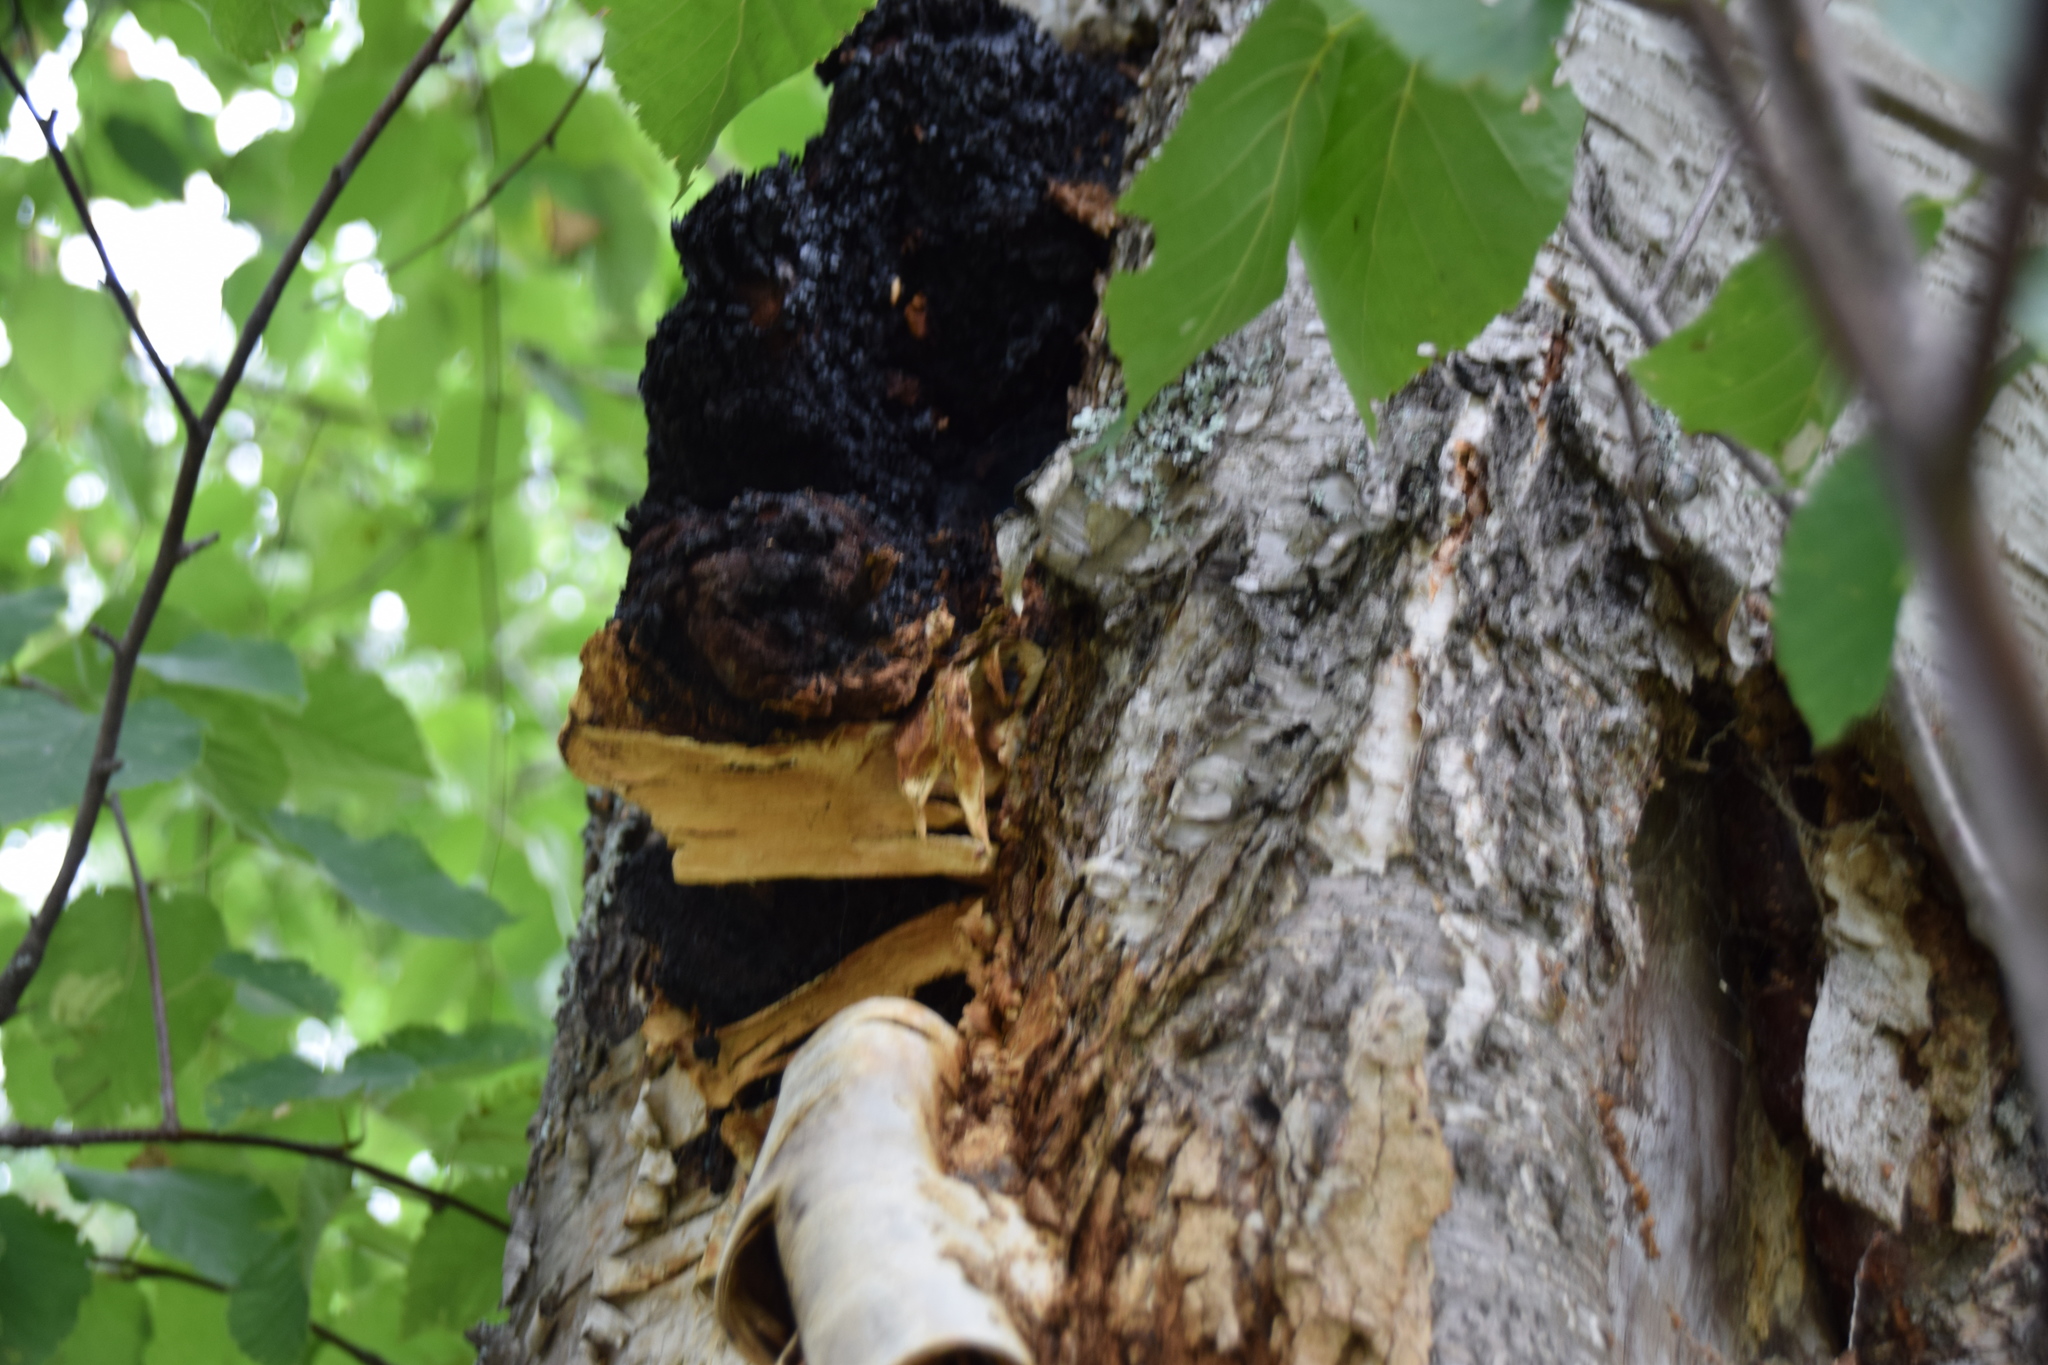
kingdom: Fungi
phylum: Basidiomycota
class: Agaricomycetes
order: Hymenochaetales
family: Hymenochaetaceae
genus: Inonotus
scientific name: Inonotus obliquus
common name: Chaga
